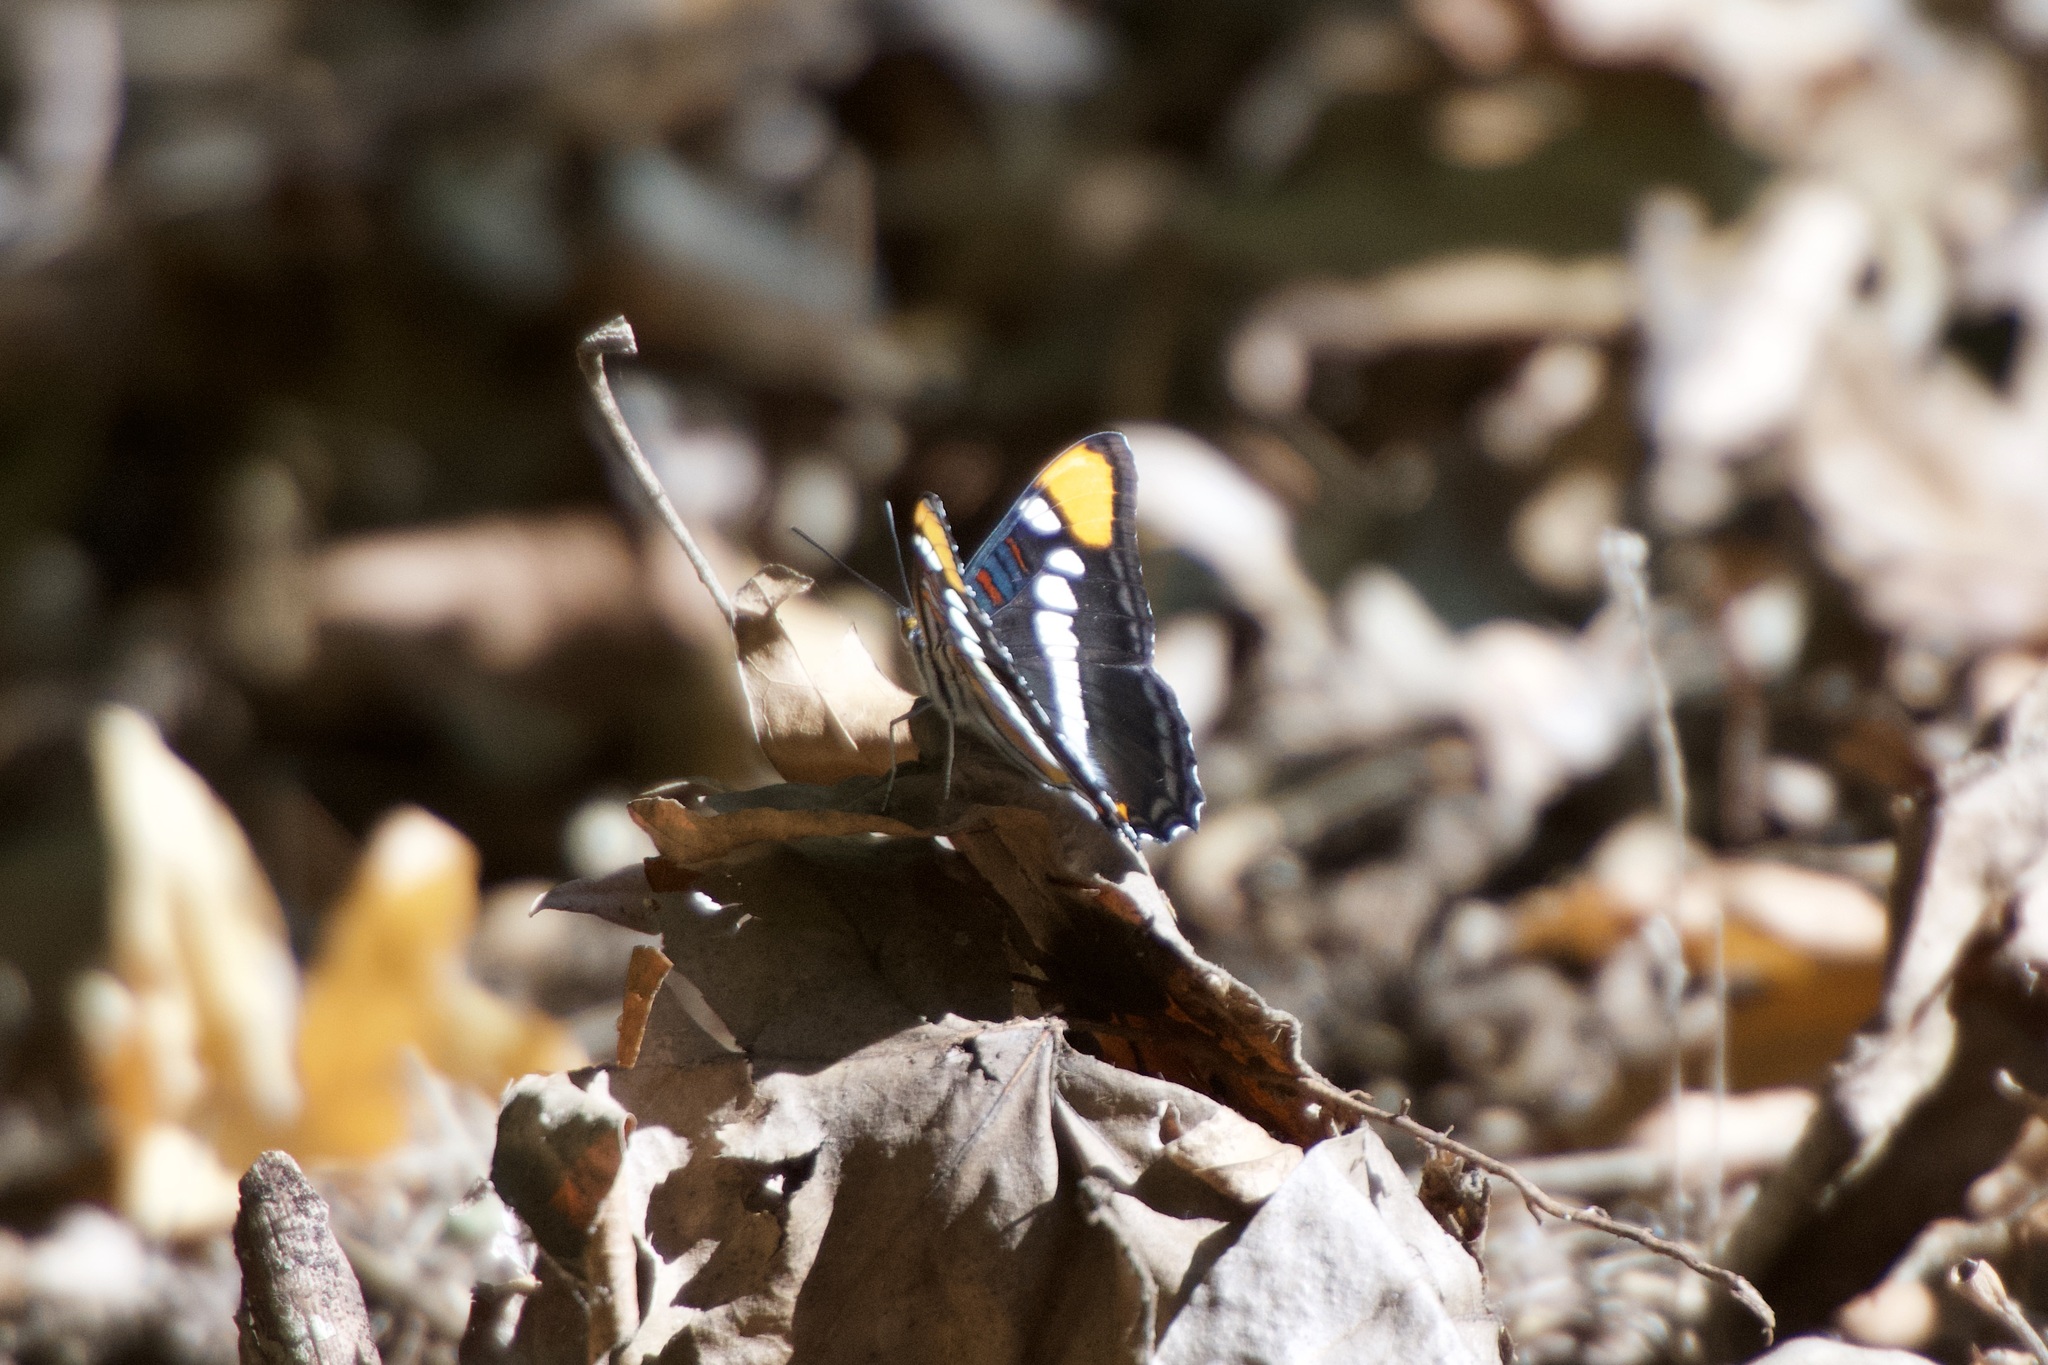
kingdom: Animalia
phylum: Arthropoda
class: Insecta
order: Lepidoptera
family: Nymphalidae
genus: Limenitis
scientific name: Limenitis bredowii
